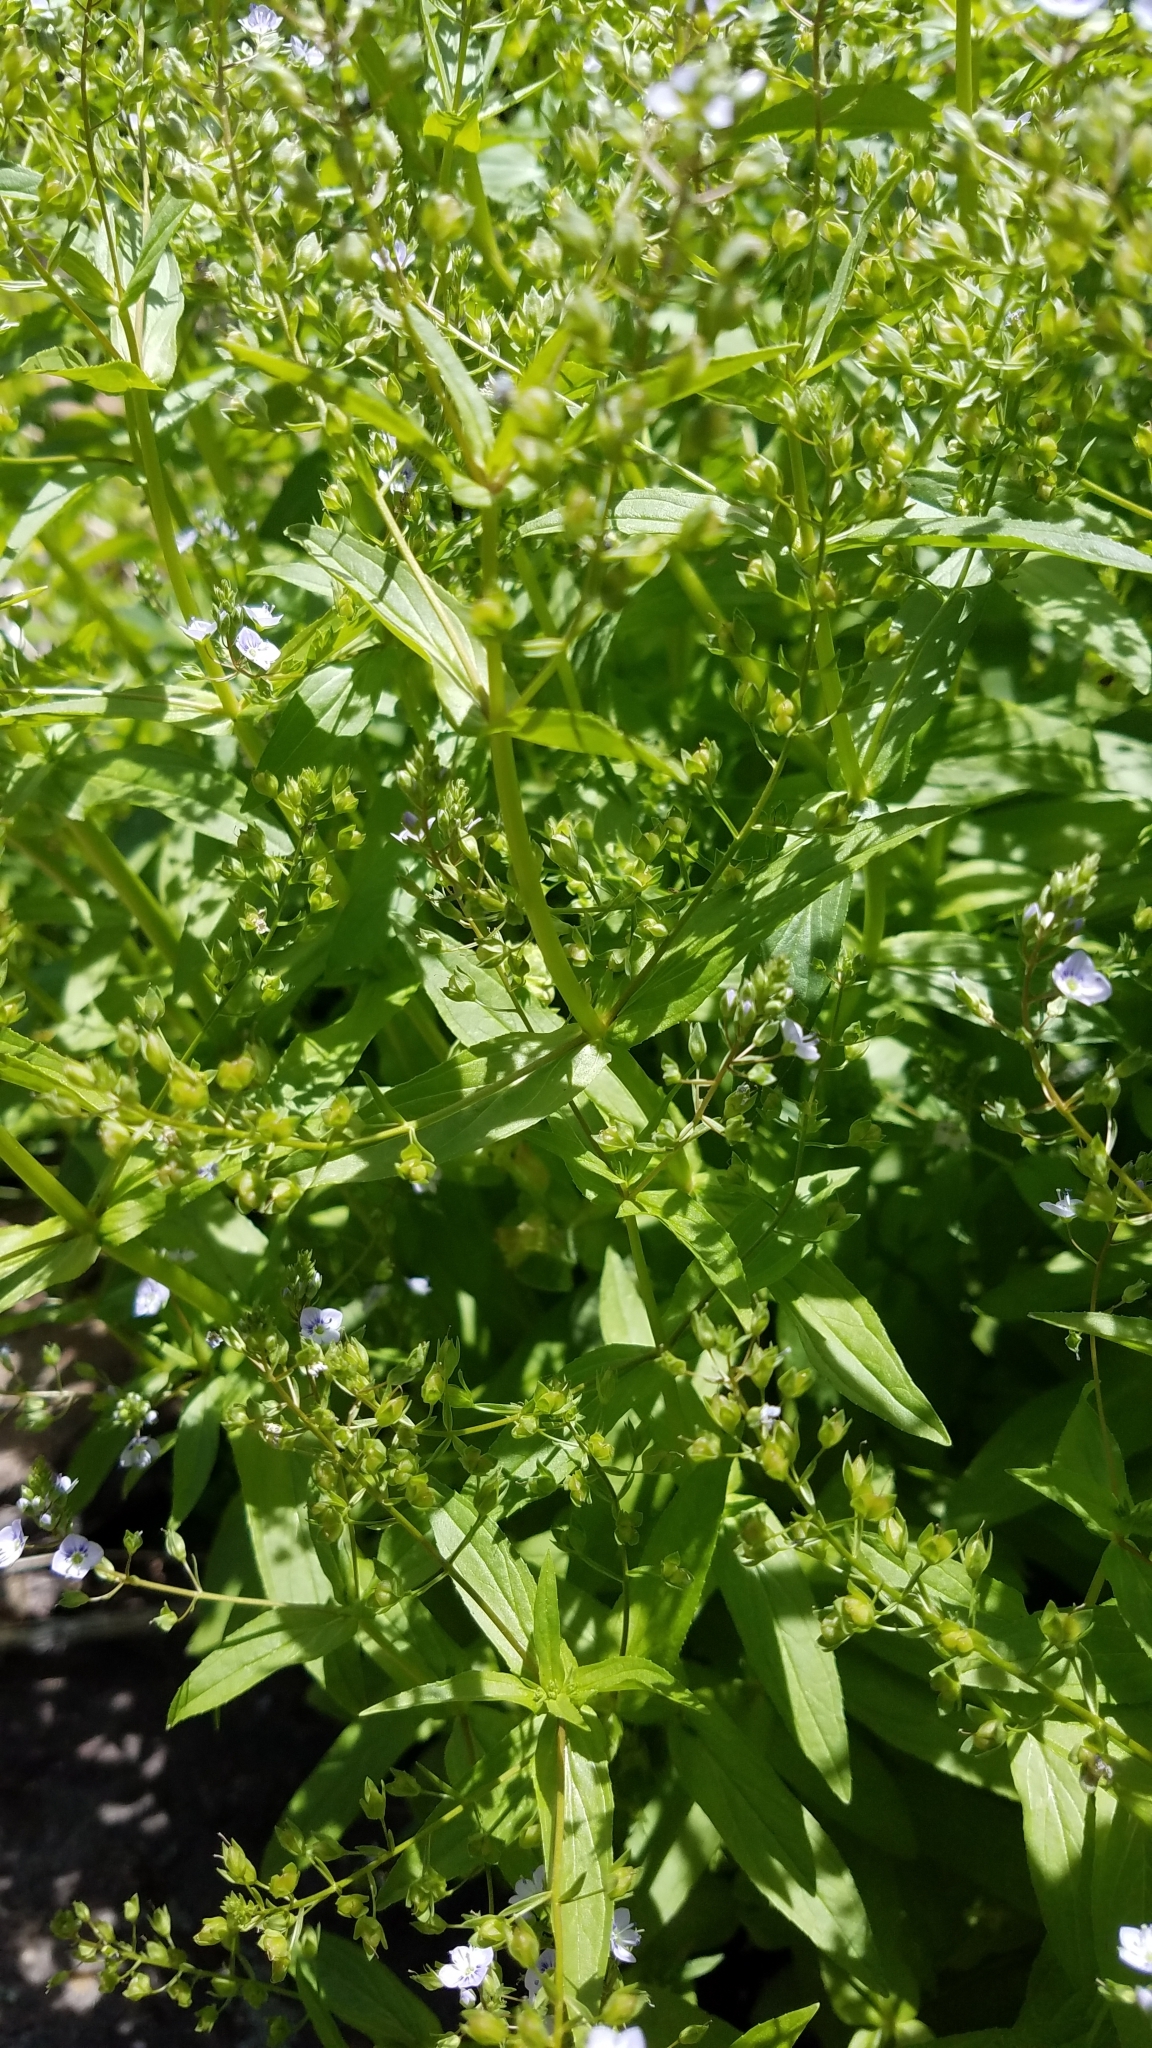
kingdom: Plantae
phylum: Tracheophyta
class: Magnoliopsida
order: Lamiales
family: Plantaginaceae
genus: Veronica
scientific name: Veronica anagallis-aquatica
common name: Water speedwell
